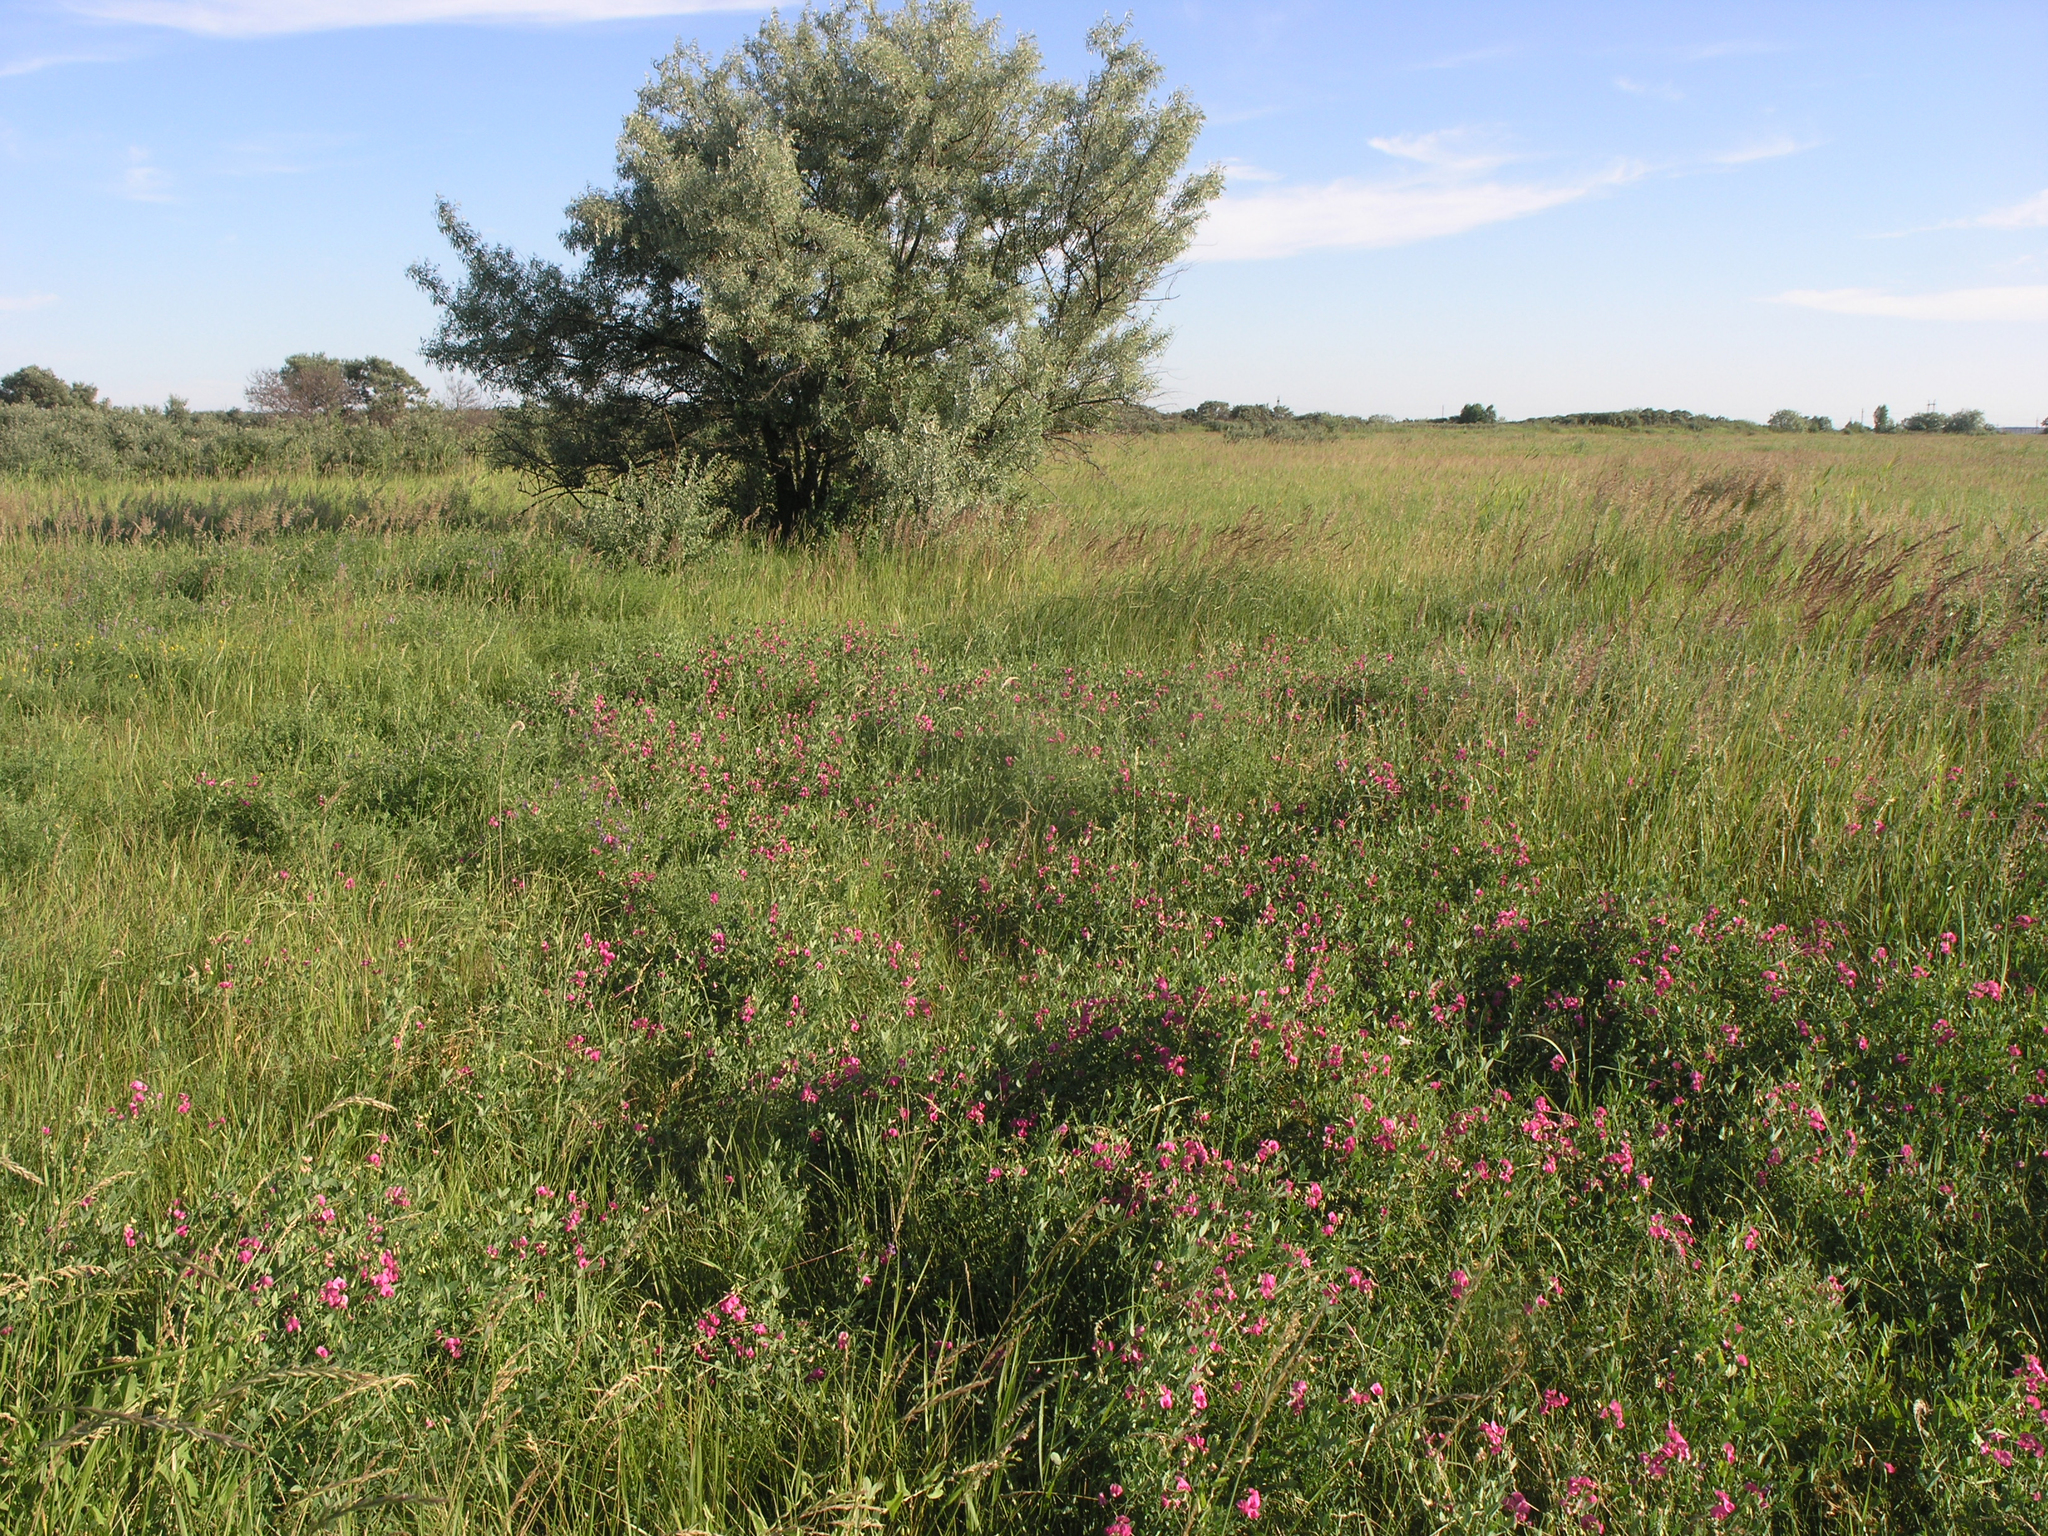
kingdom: Plantae
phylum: Tracheophyta
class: Magnoliopsida
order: Rosales
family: Elaeagnaceae
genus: Elaeagnus
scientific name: Elaeagnus angustifolia
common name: Russian olive
